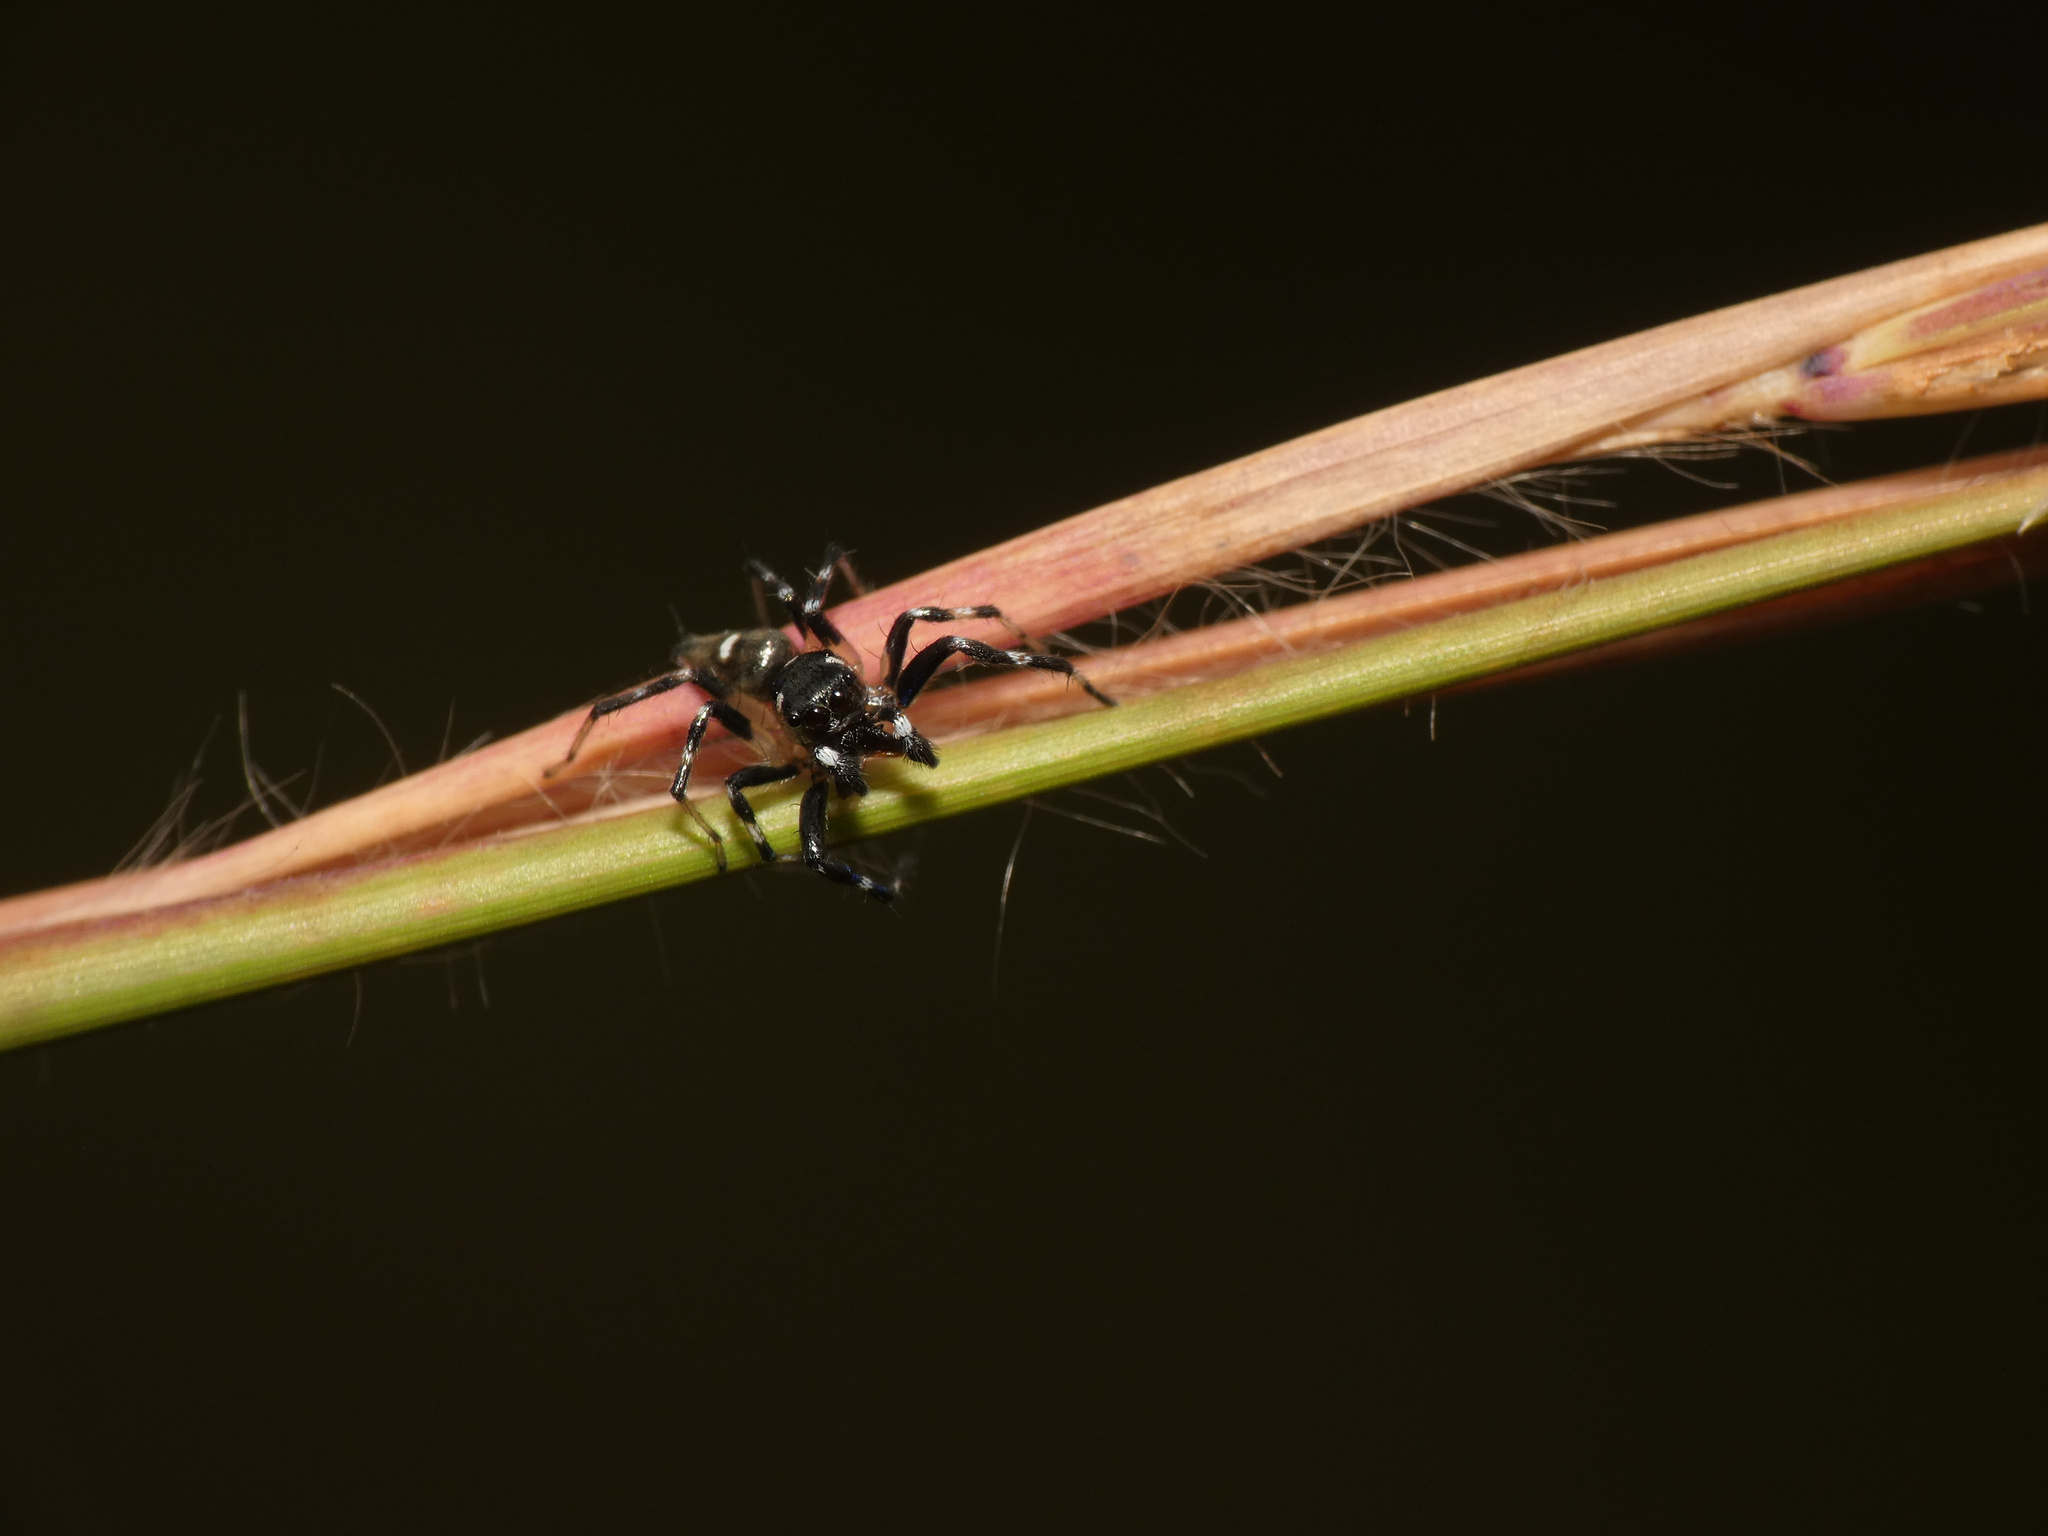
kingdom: Animalia
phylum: Arthropoda
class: Arachnida
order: Araneae
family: Salticidae
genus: Phintella
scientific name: Phintella aequipes
